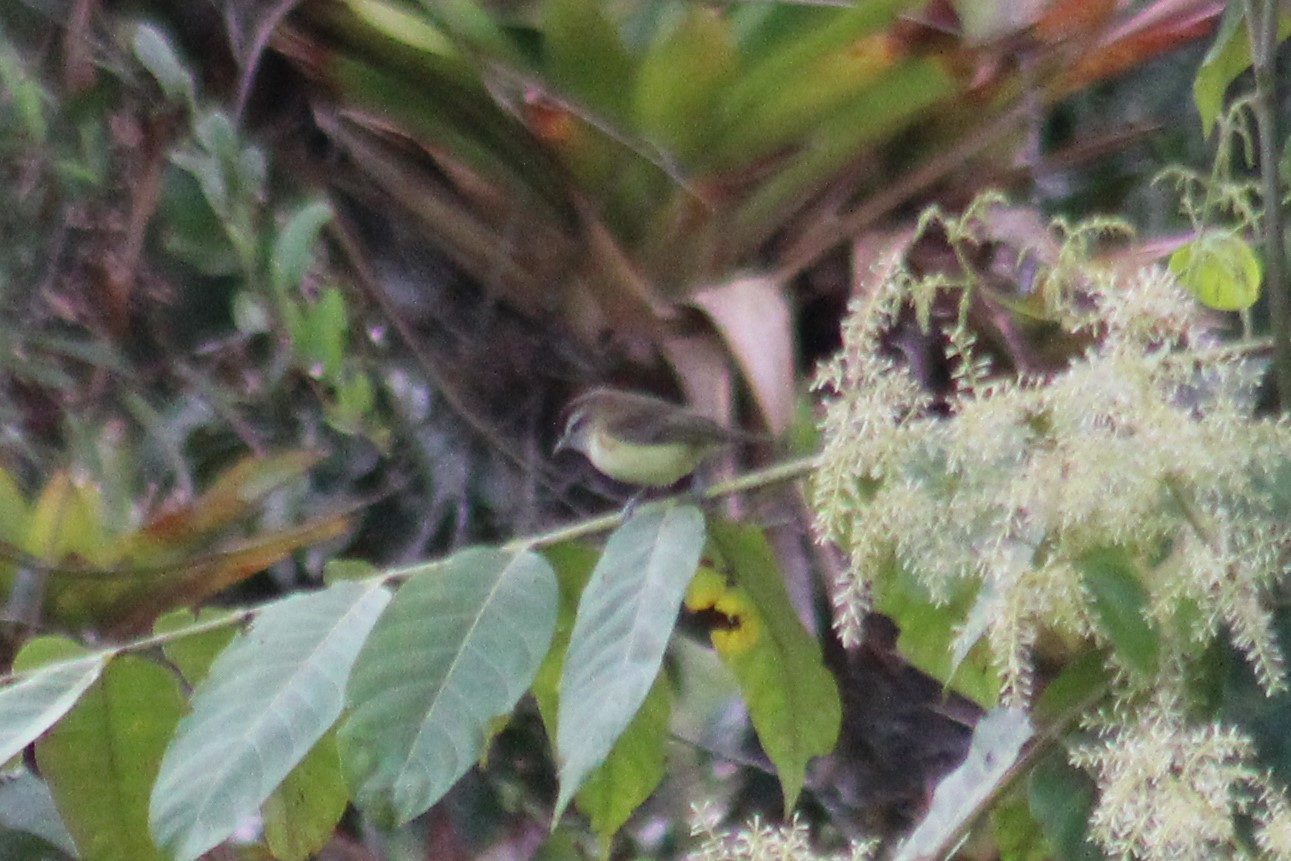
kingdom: Animalia
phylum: Chordata
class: Aves
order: Passeriformes
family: Vireonidae
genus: Vireo
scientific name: Vireo leucophrys
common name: Brown-capped vireo
